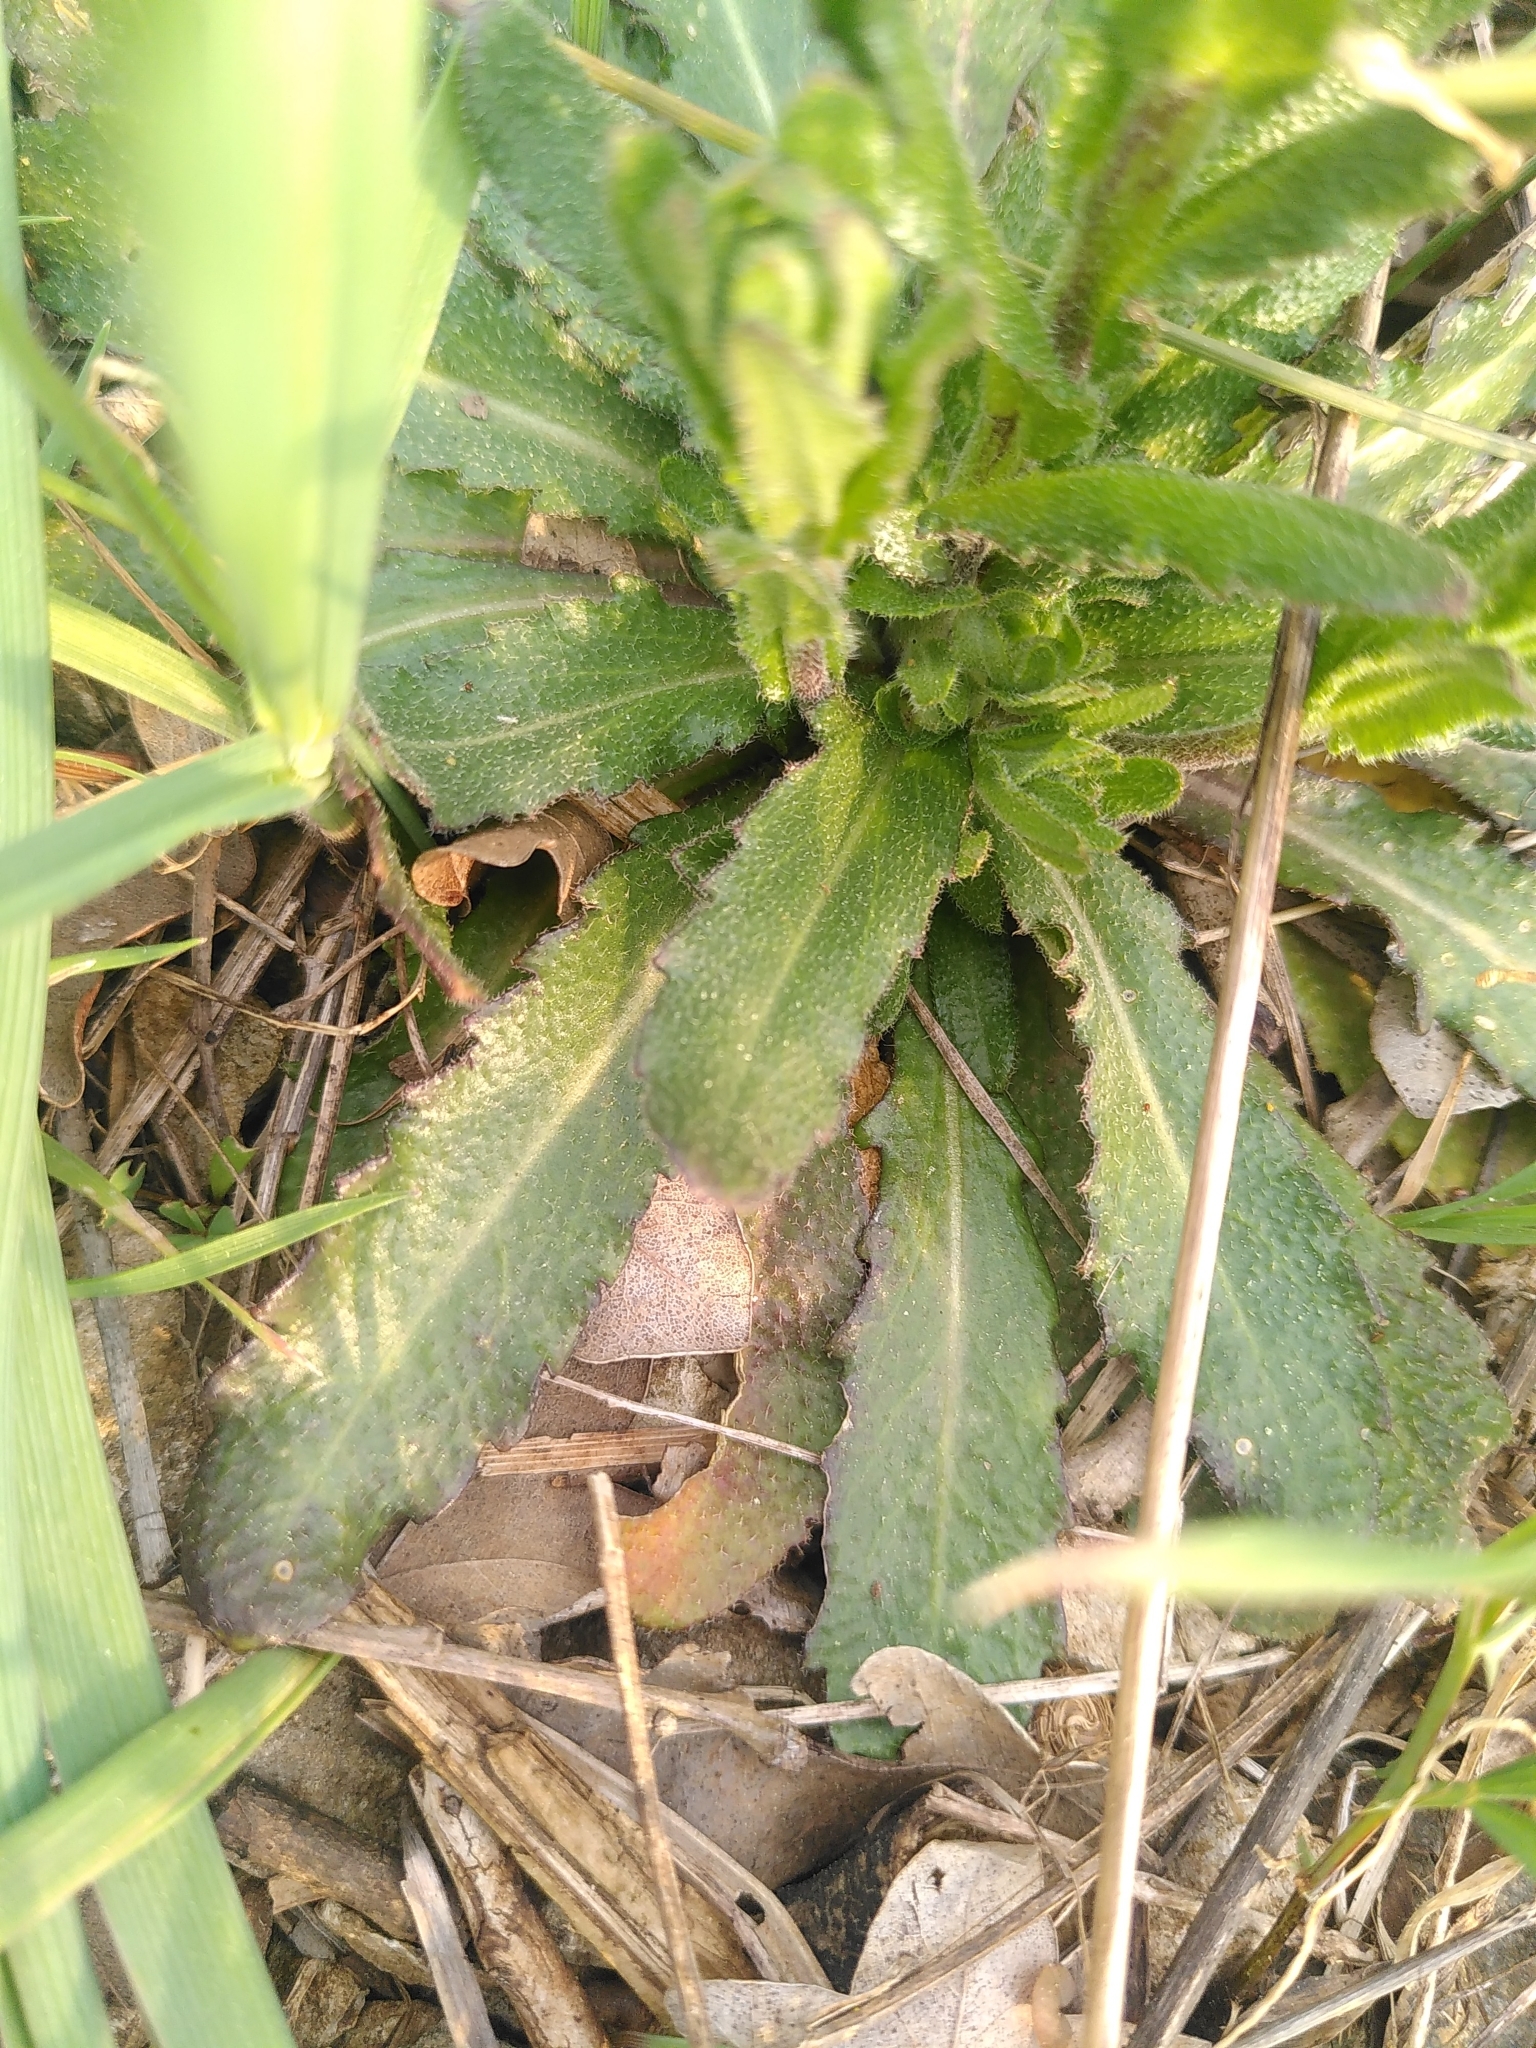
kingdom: Plantae
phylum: Tracheophyta
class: Magnoliopsida
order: Brassicales
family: Brassicaceae
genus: Arabis
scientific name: Arabis hirsuta
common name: Hairy rock-cress
